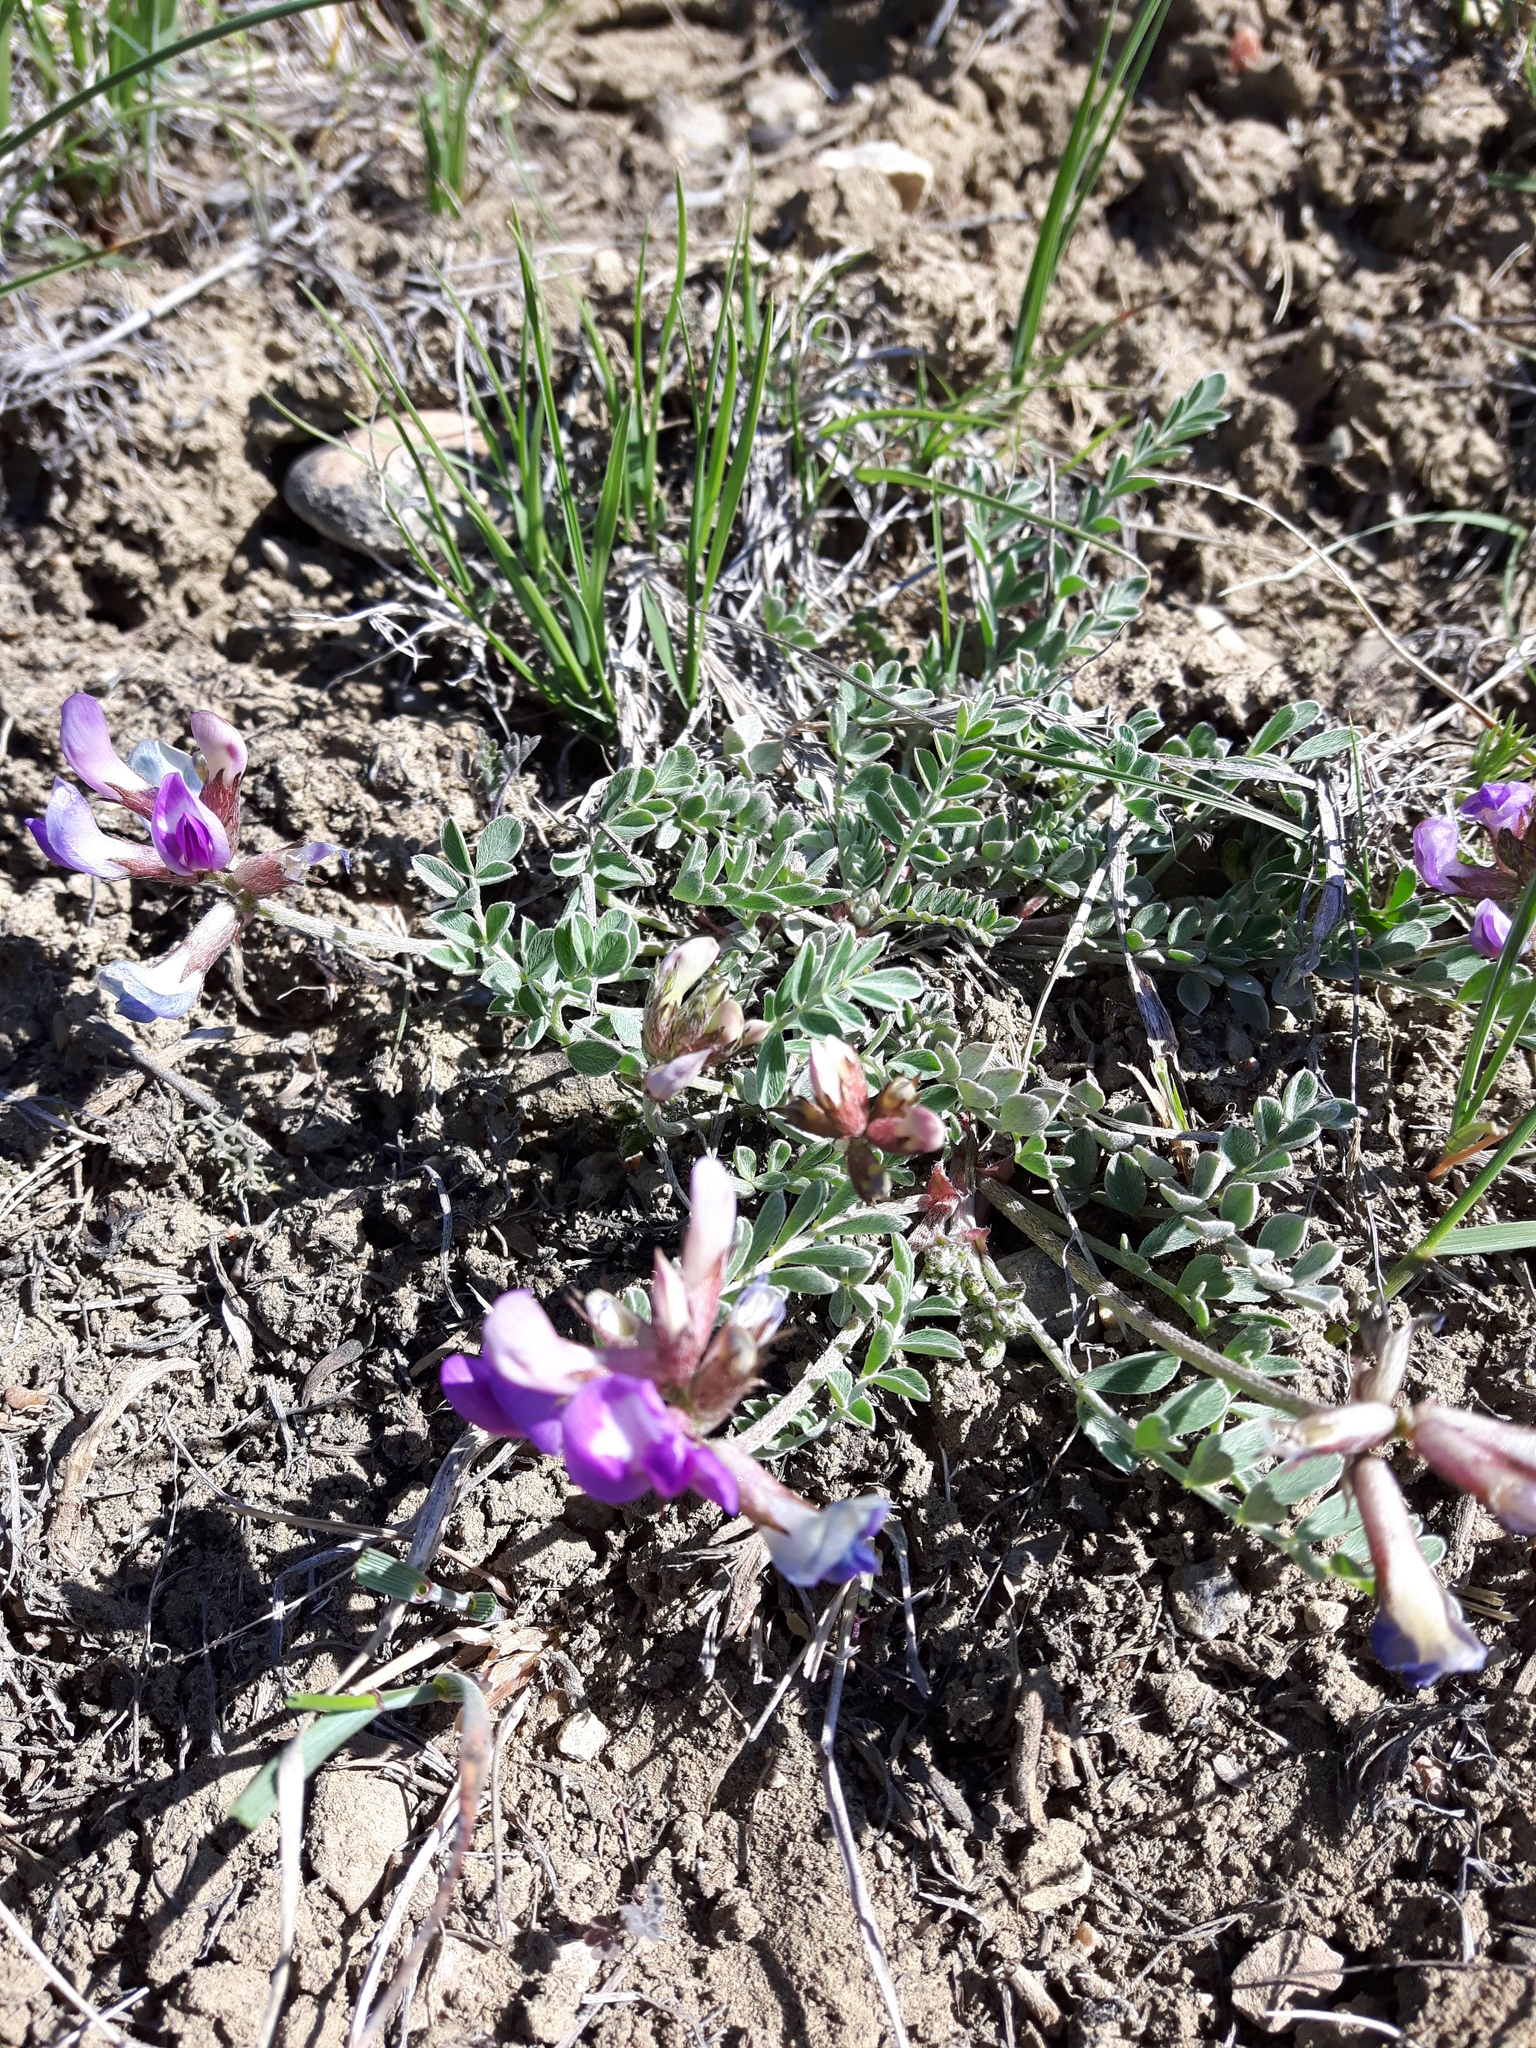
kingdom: Plantae
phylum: Tracheophyta
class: Magnoliopsida
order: Fabales
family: Fabaceae
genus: Astragalus
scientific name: Astragalus missouriensis
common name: Missouri milk-vetch
